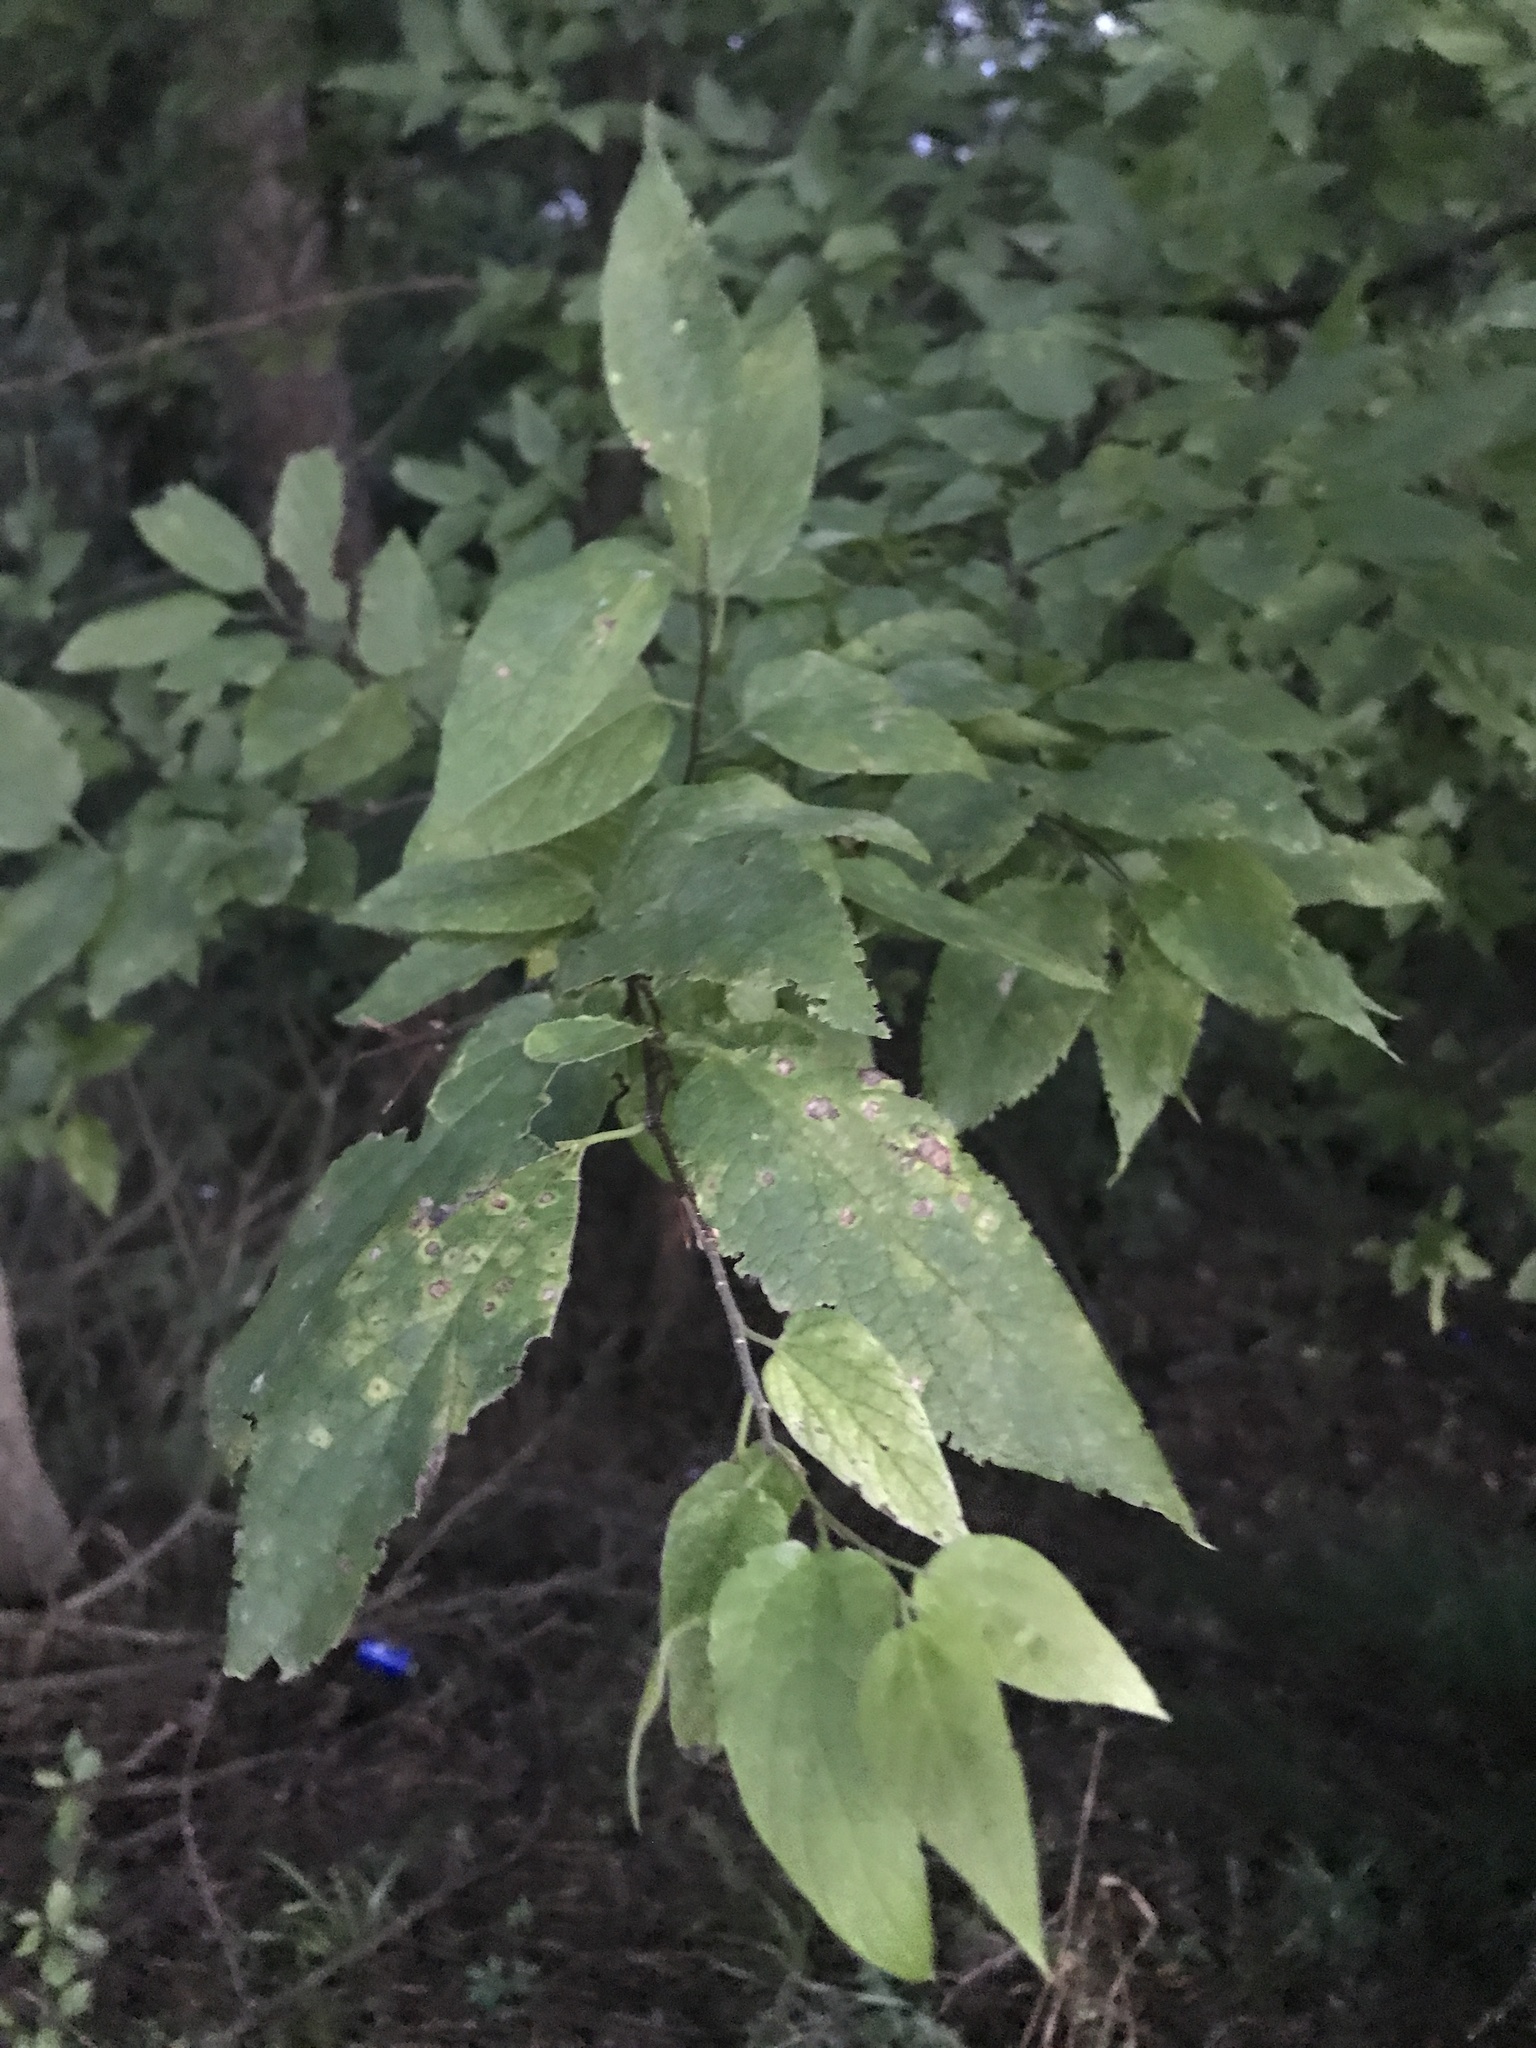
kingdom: Plantae
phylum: Tracheophyta
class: Magnoliopsida
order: Rosales
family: Cannabaceae
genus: Celtis
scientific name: Celtis laevigata
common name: Sugarberry
